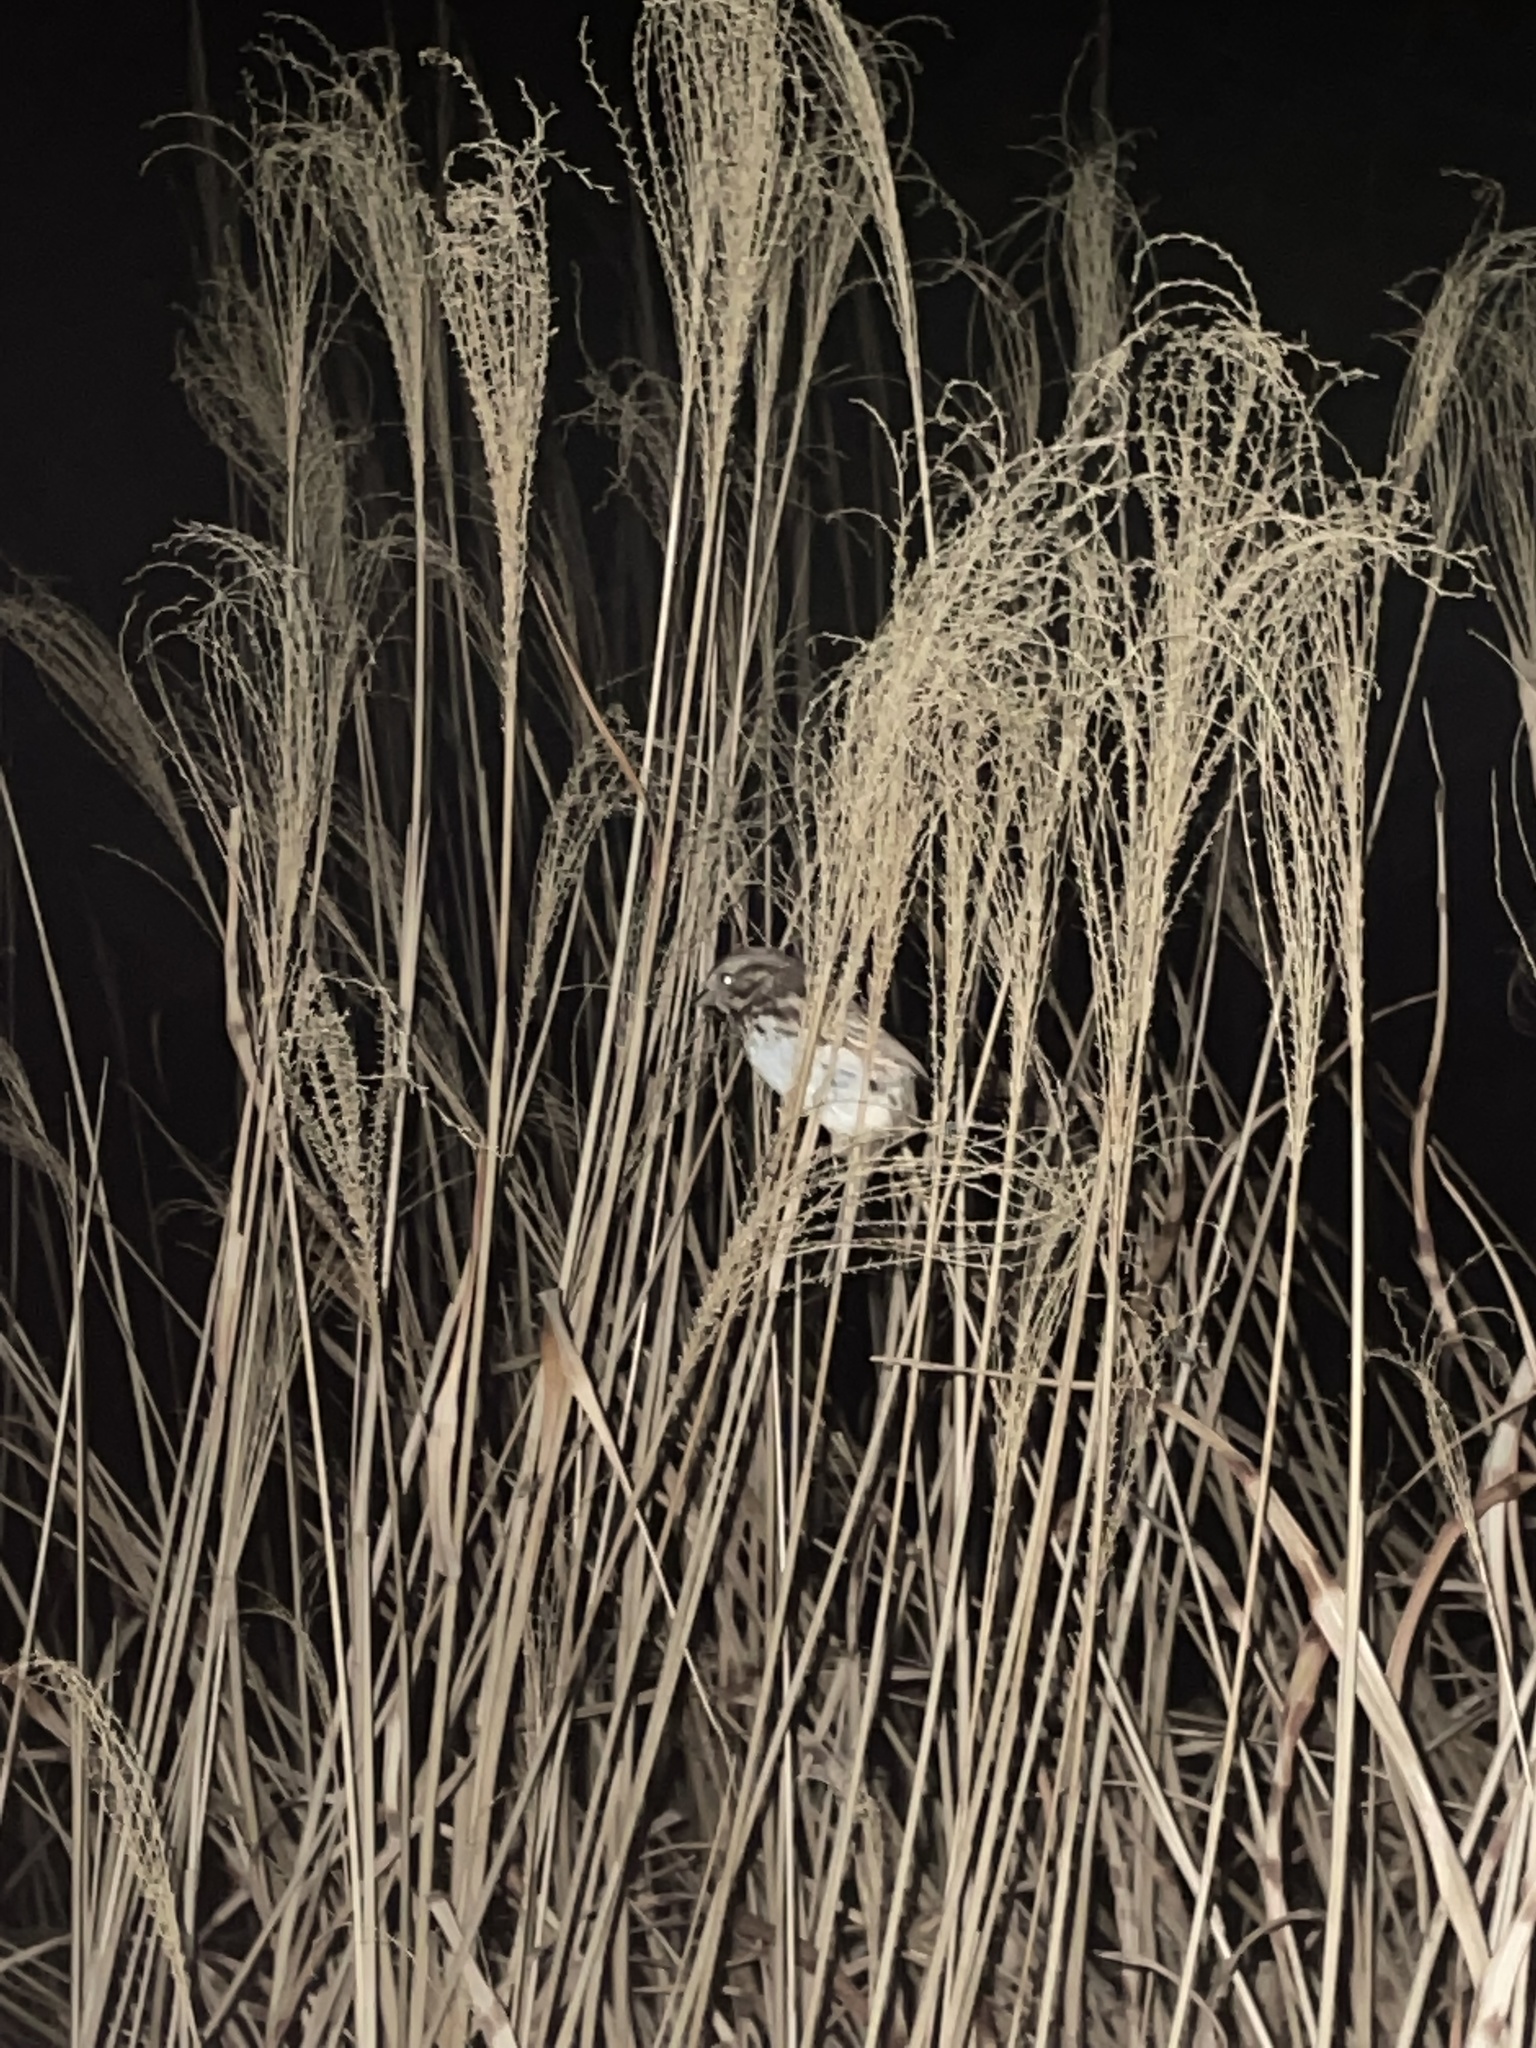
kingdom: Animalia
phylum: Chordata
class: Aves
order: Passeriformes
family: Passerellidae
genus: Melospiza
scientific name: Melospiza melodia
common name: Song sparrow
